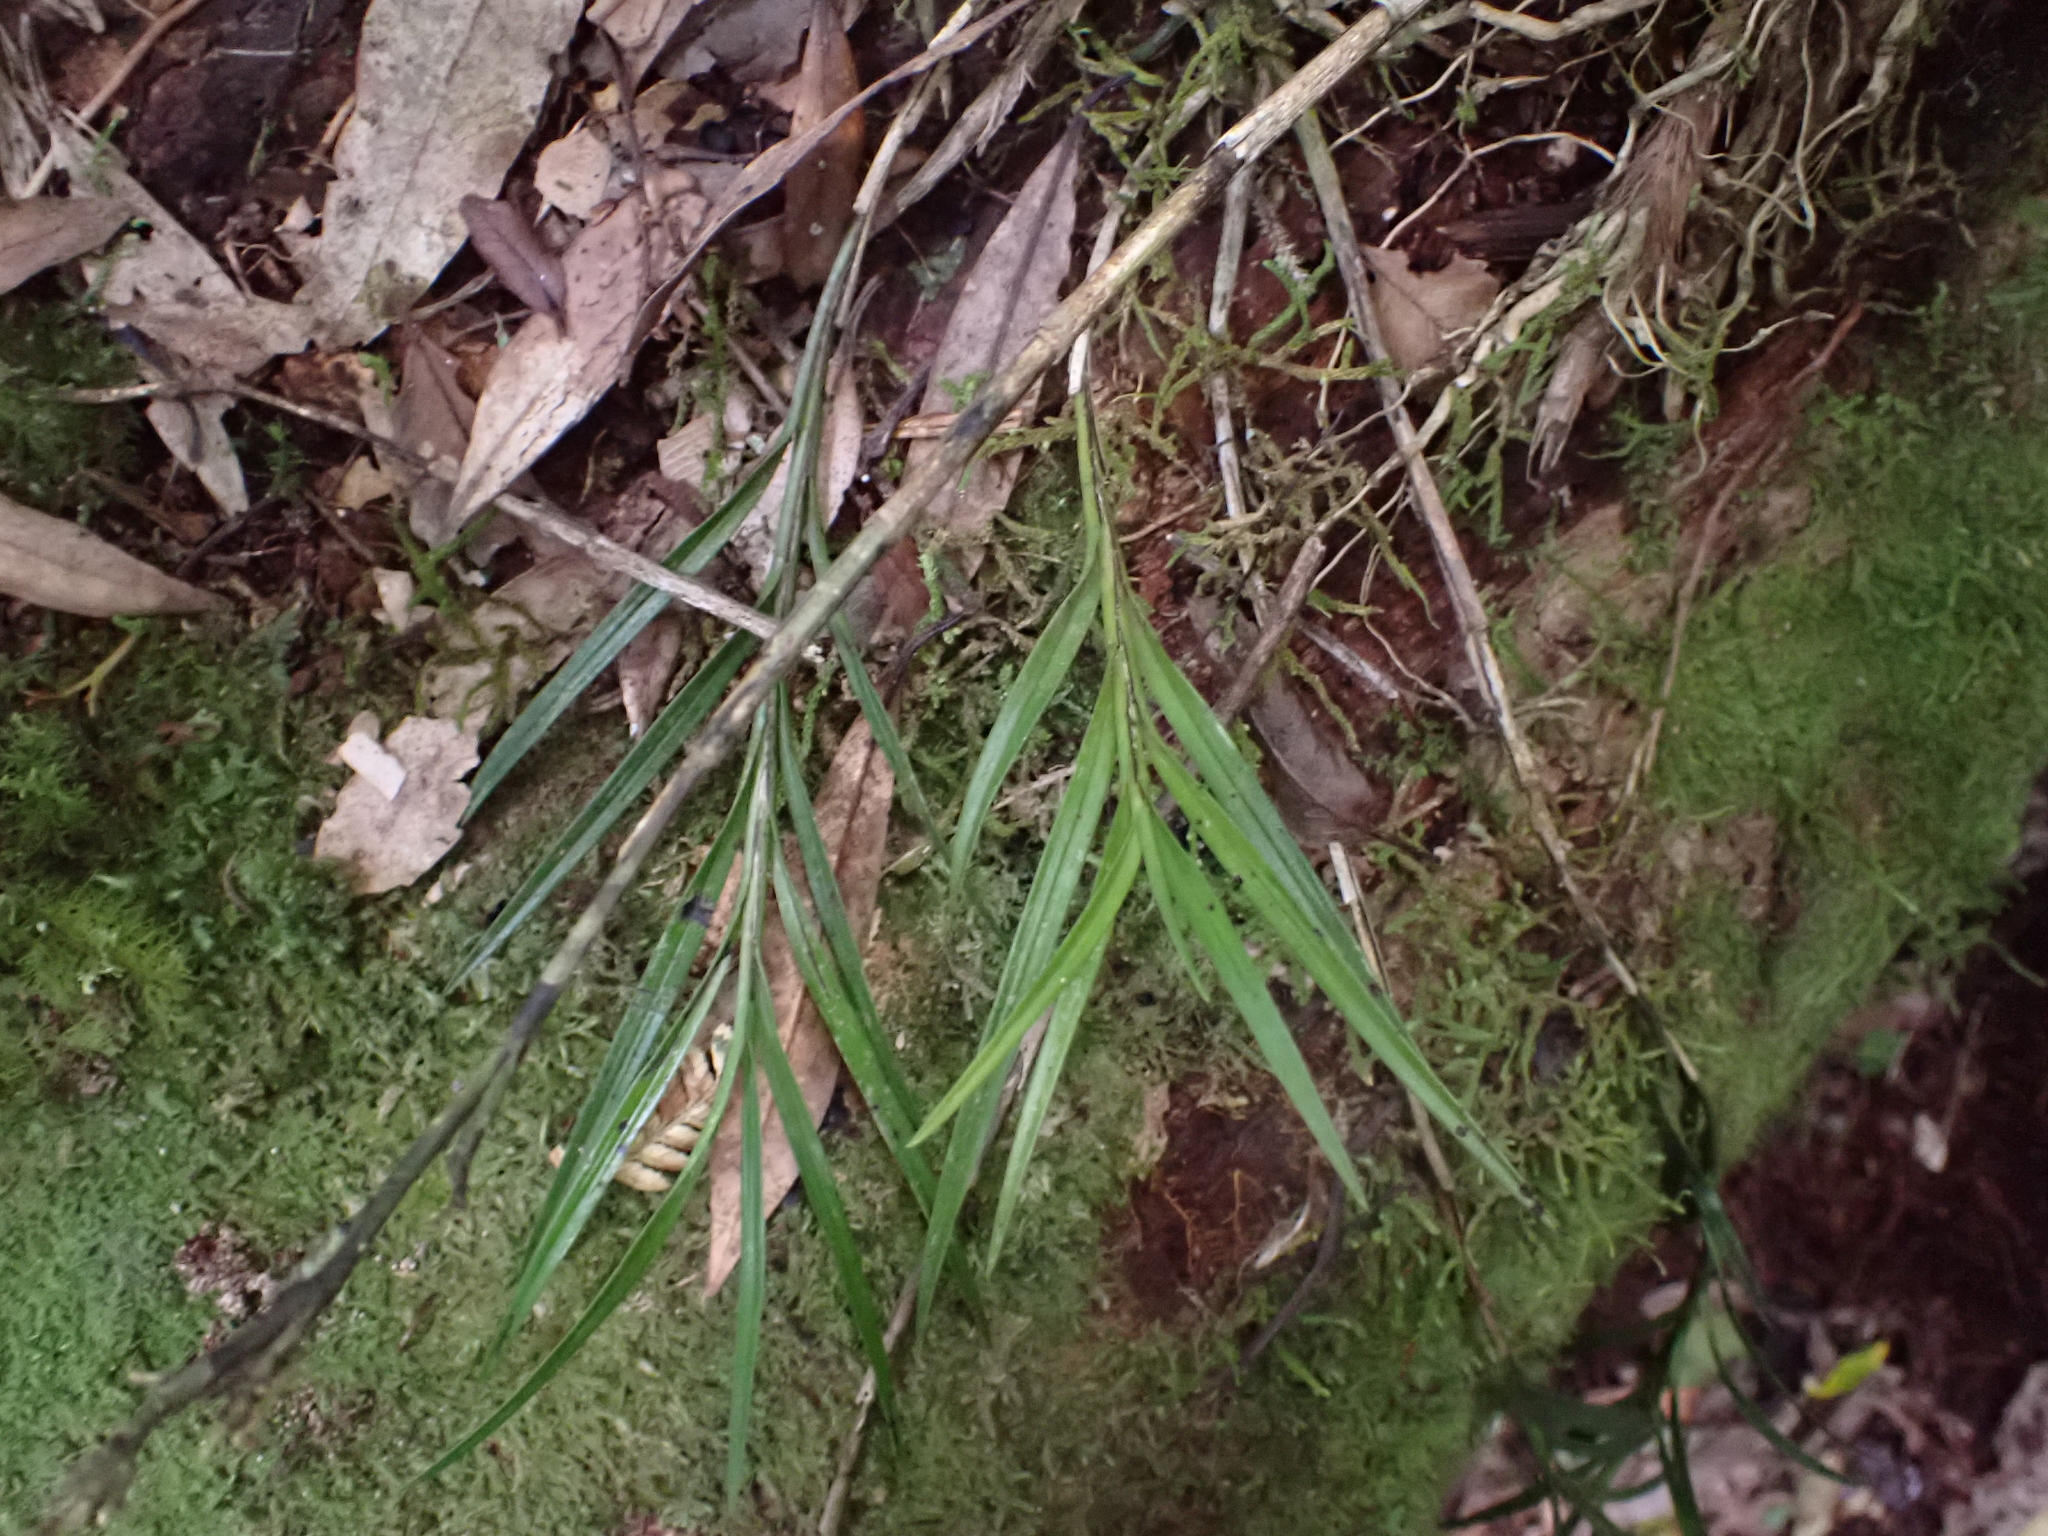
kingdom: Plantae
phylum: Tracheophyta
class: Liliopsida
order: Asparagales
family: Orchidaceae
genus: Earina
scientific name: Earina autumnalis
